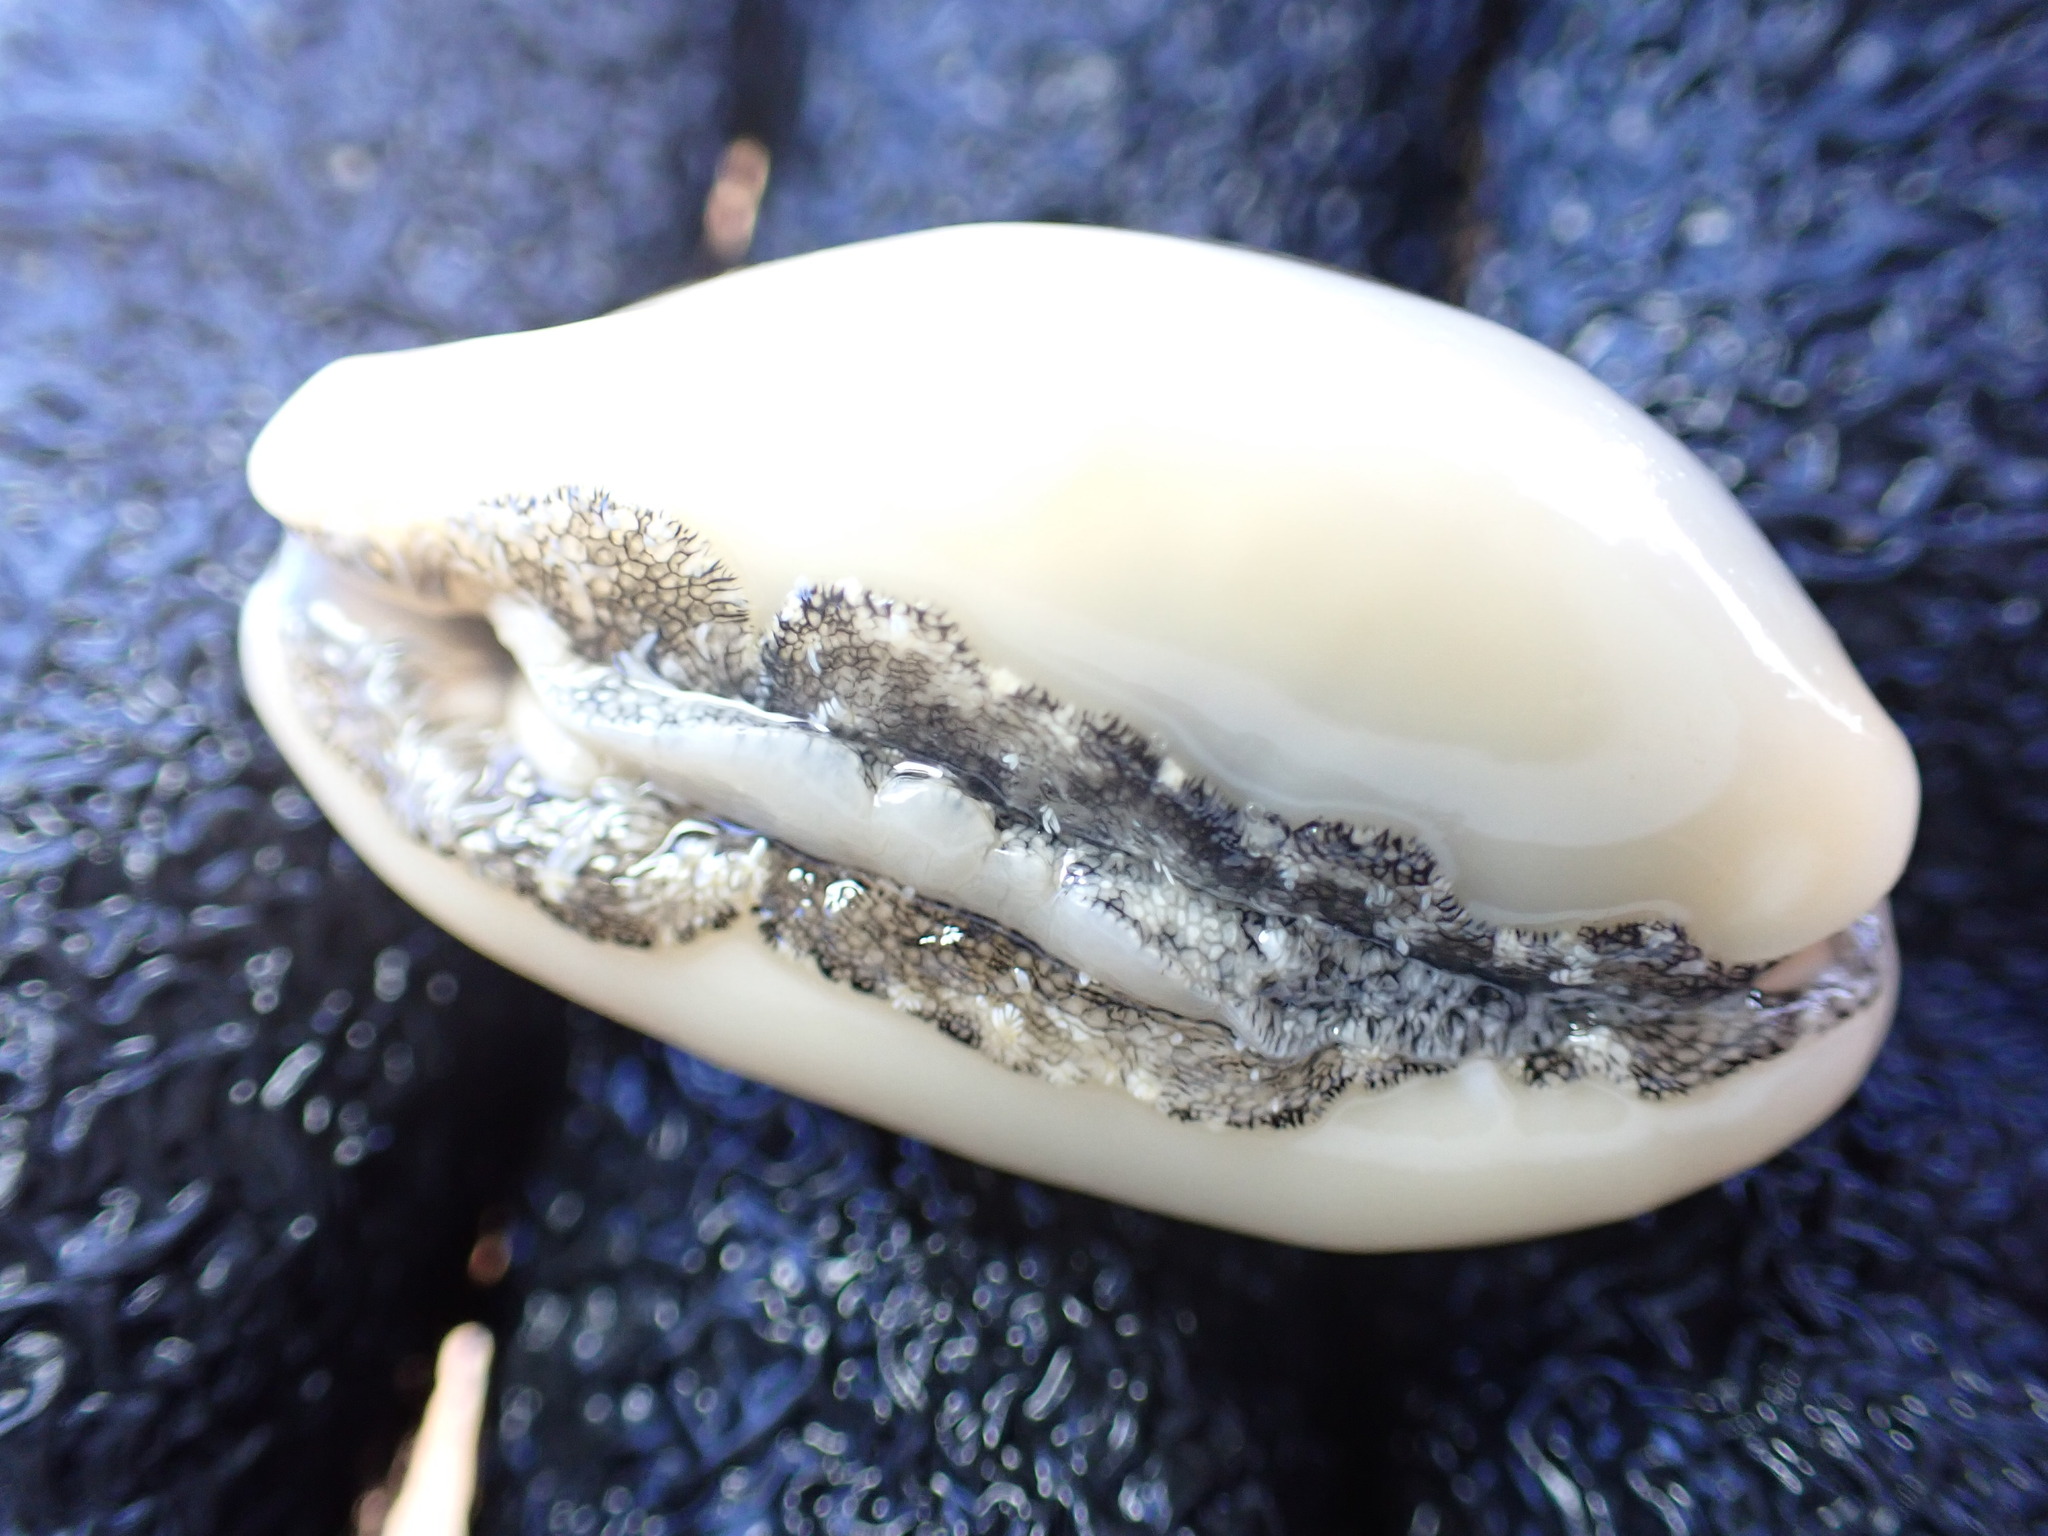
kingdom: Animalia
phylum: Mollusca
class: Gastropoda
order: Littorinimorpha
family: Cypraeidae
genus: Erronea
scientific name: Erronea subviridis
